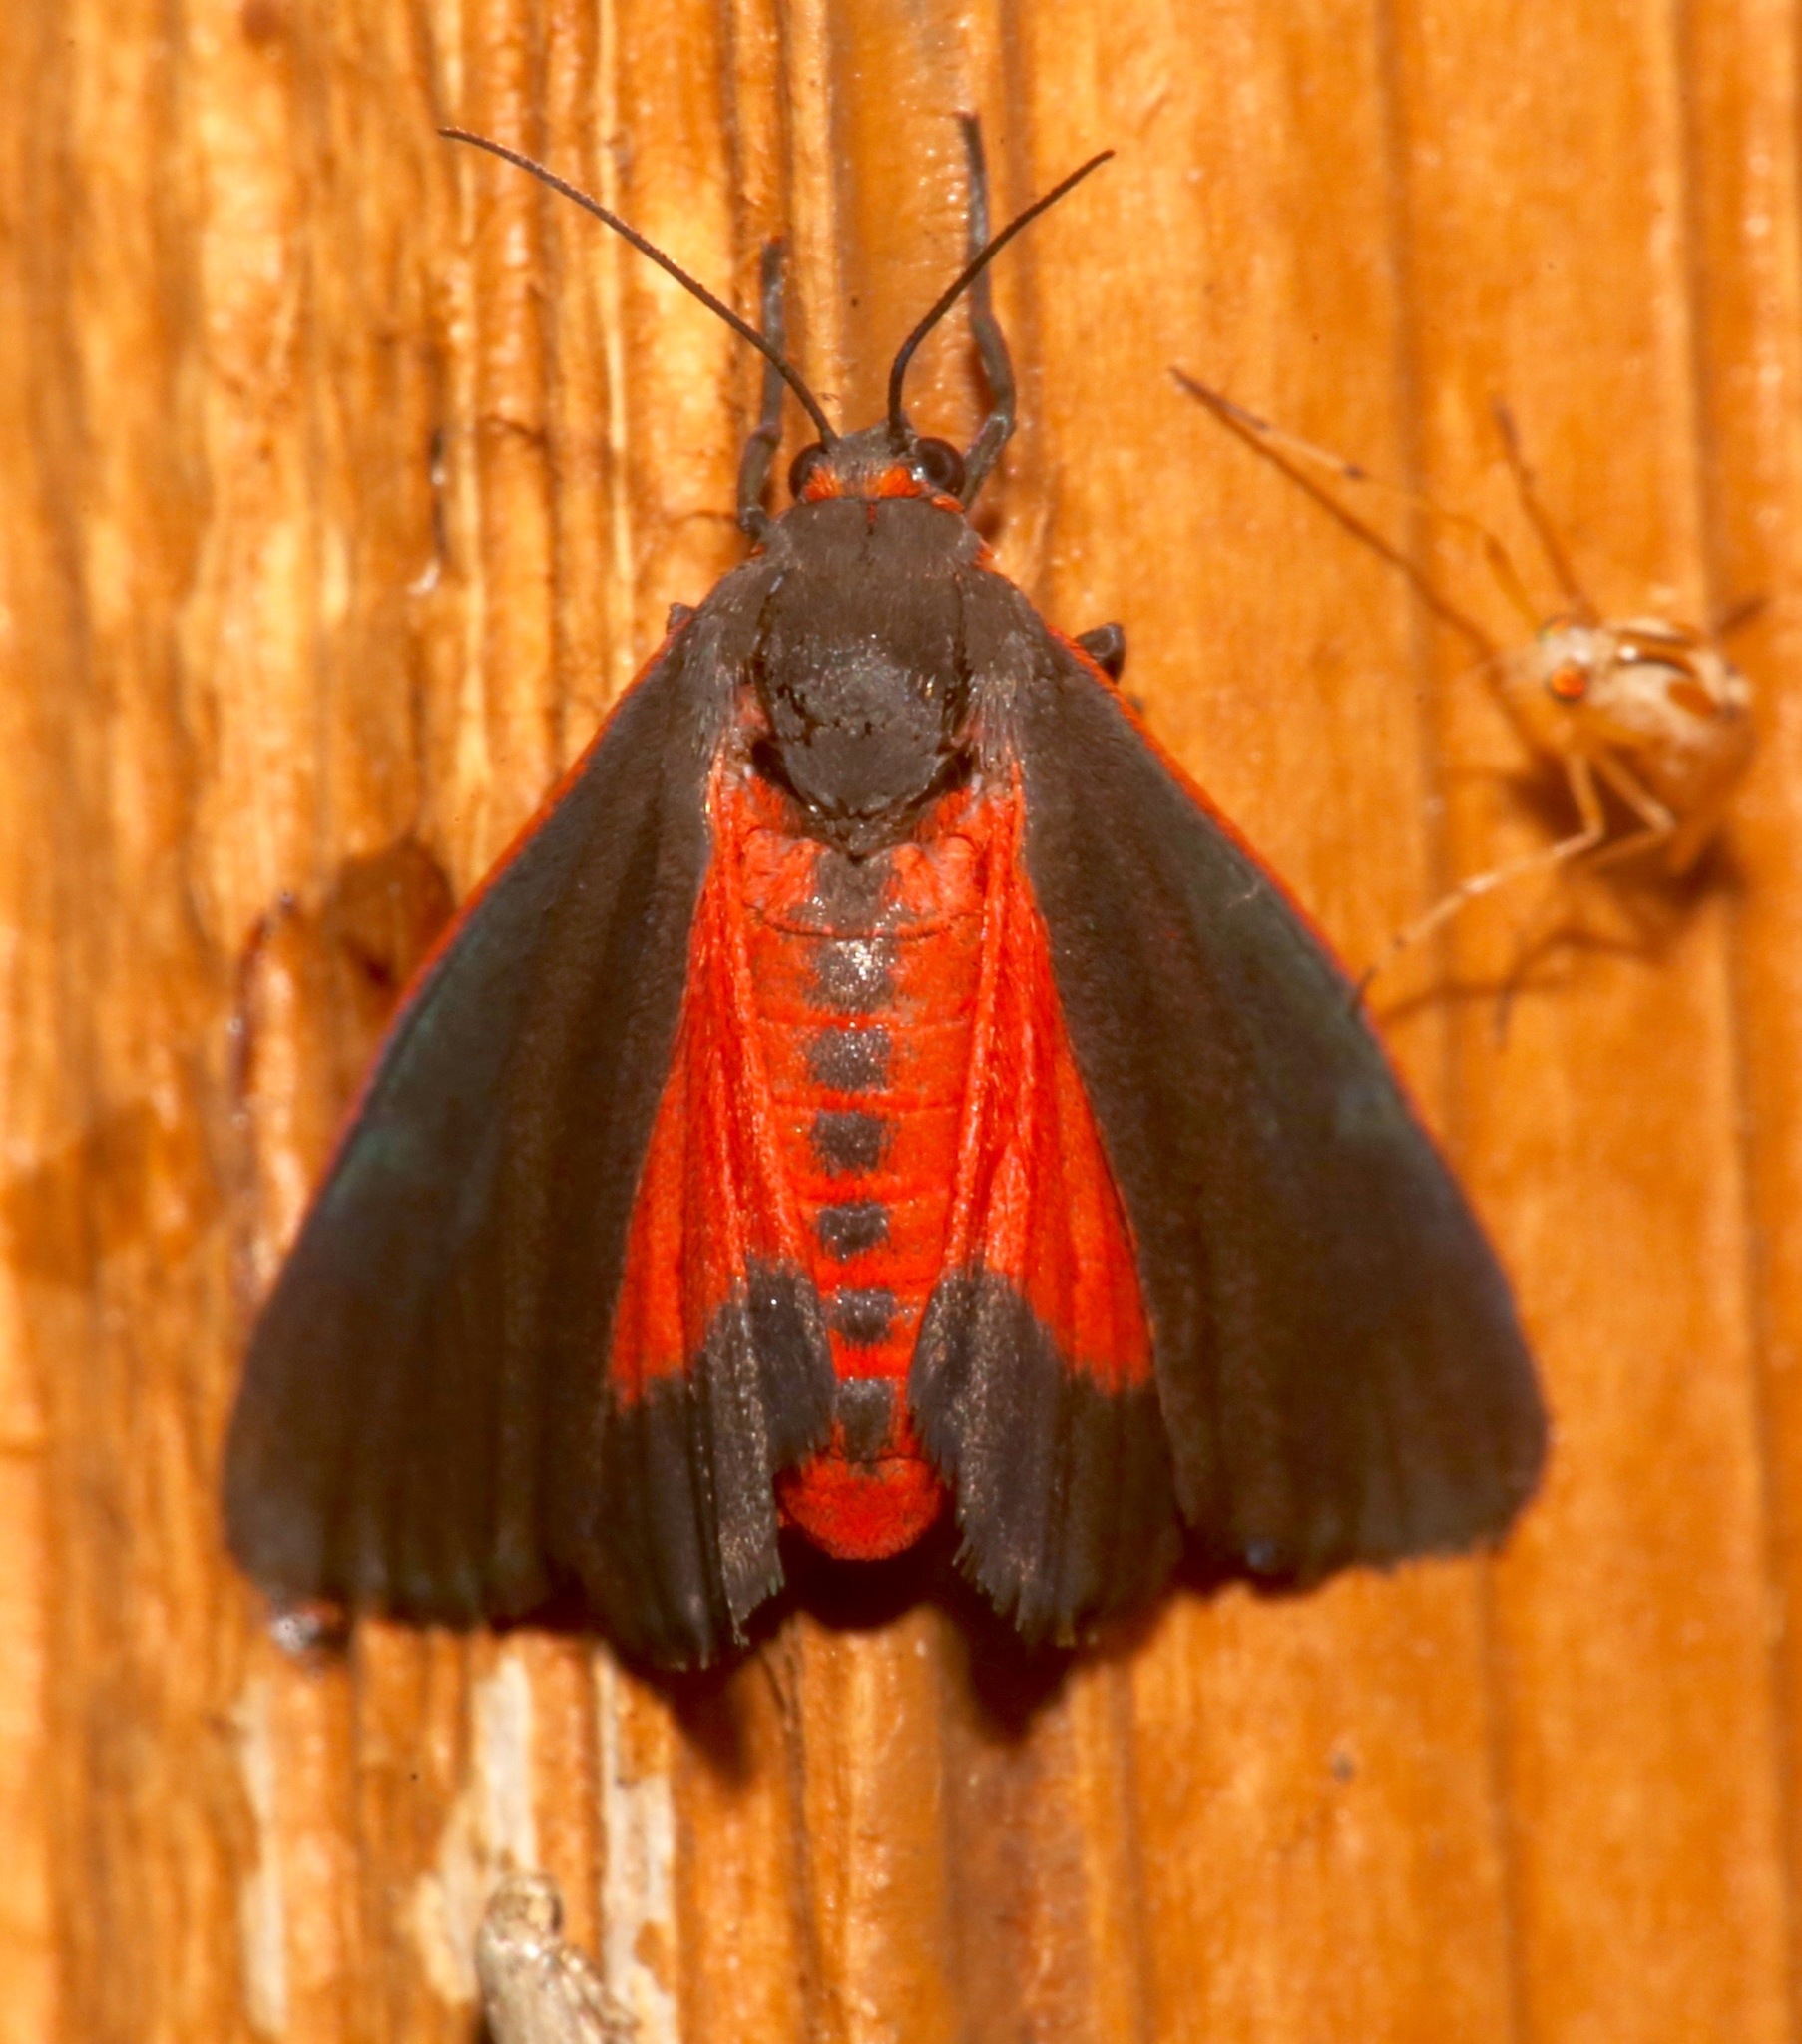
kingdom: Animalia
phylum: Arthropoda
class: Insecta
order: Lepidoptera
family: Erebidae
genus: Virbia
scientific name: Virbia laeta
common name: Joyful holomelina moth
